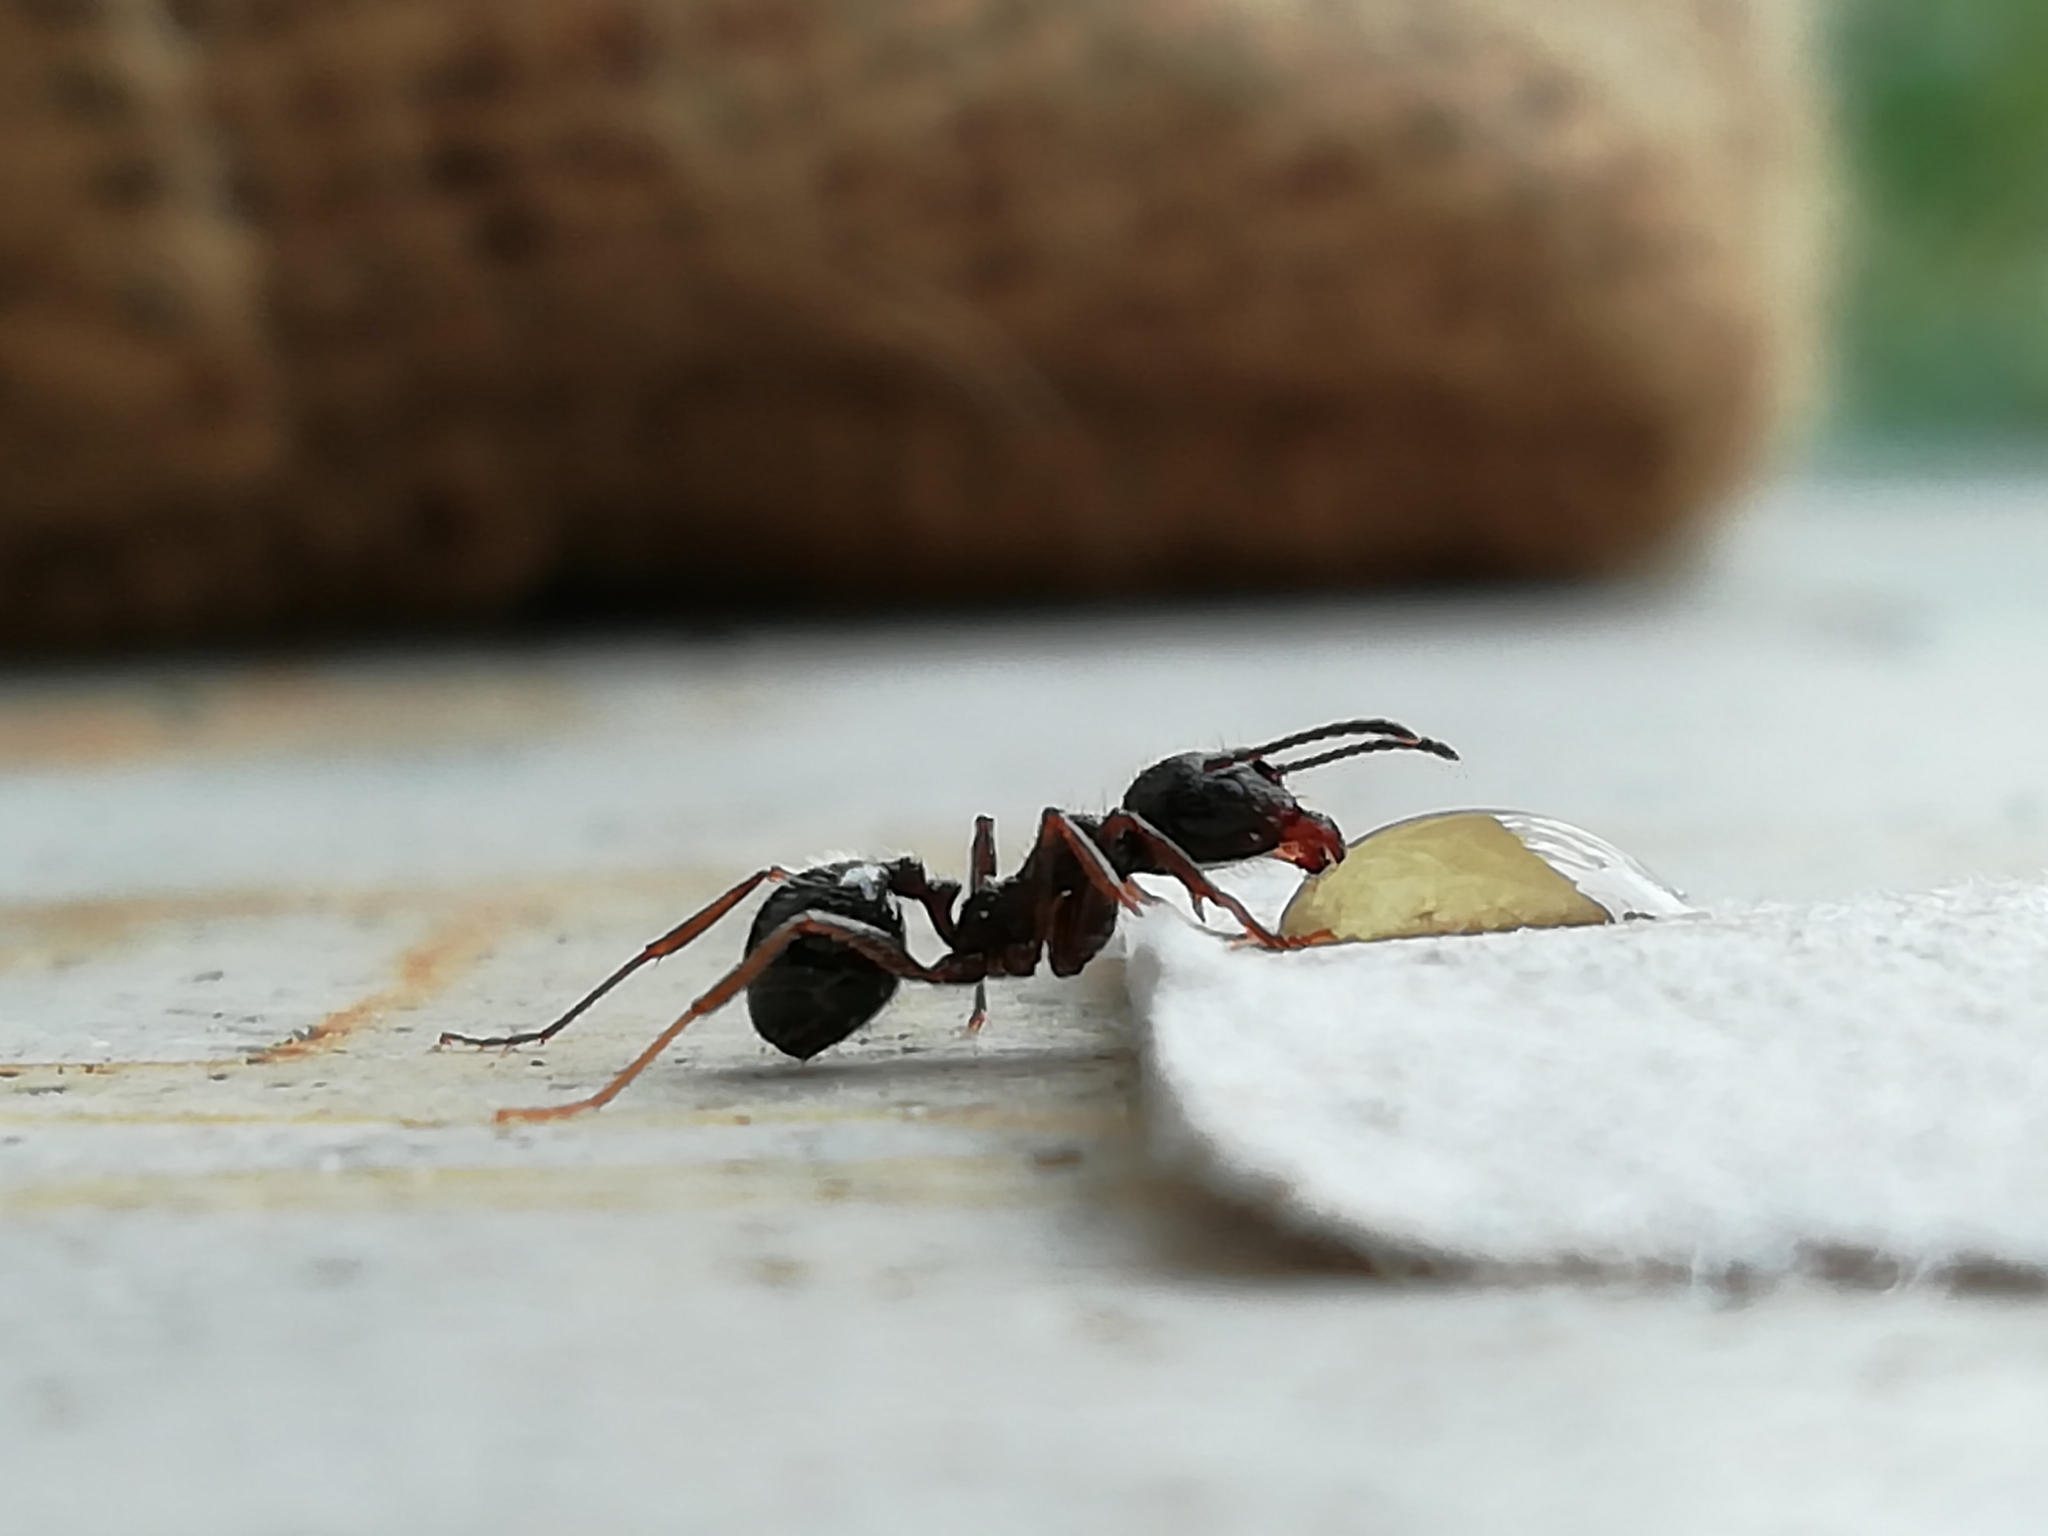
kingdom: Animalia
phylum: Arthropoda
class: Insecta
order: Hymenoptera
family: Formicidae
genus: Messor
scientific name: Messor ibericus
